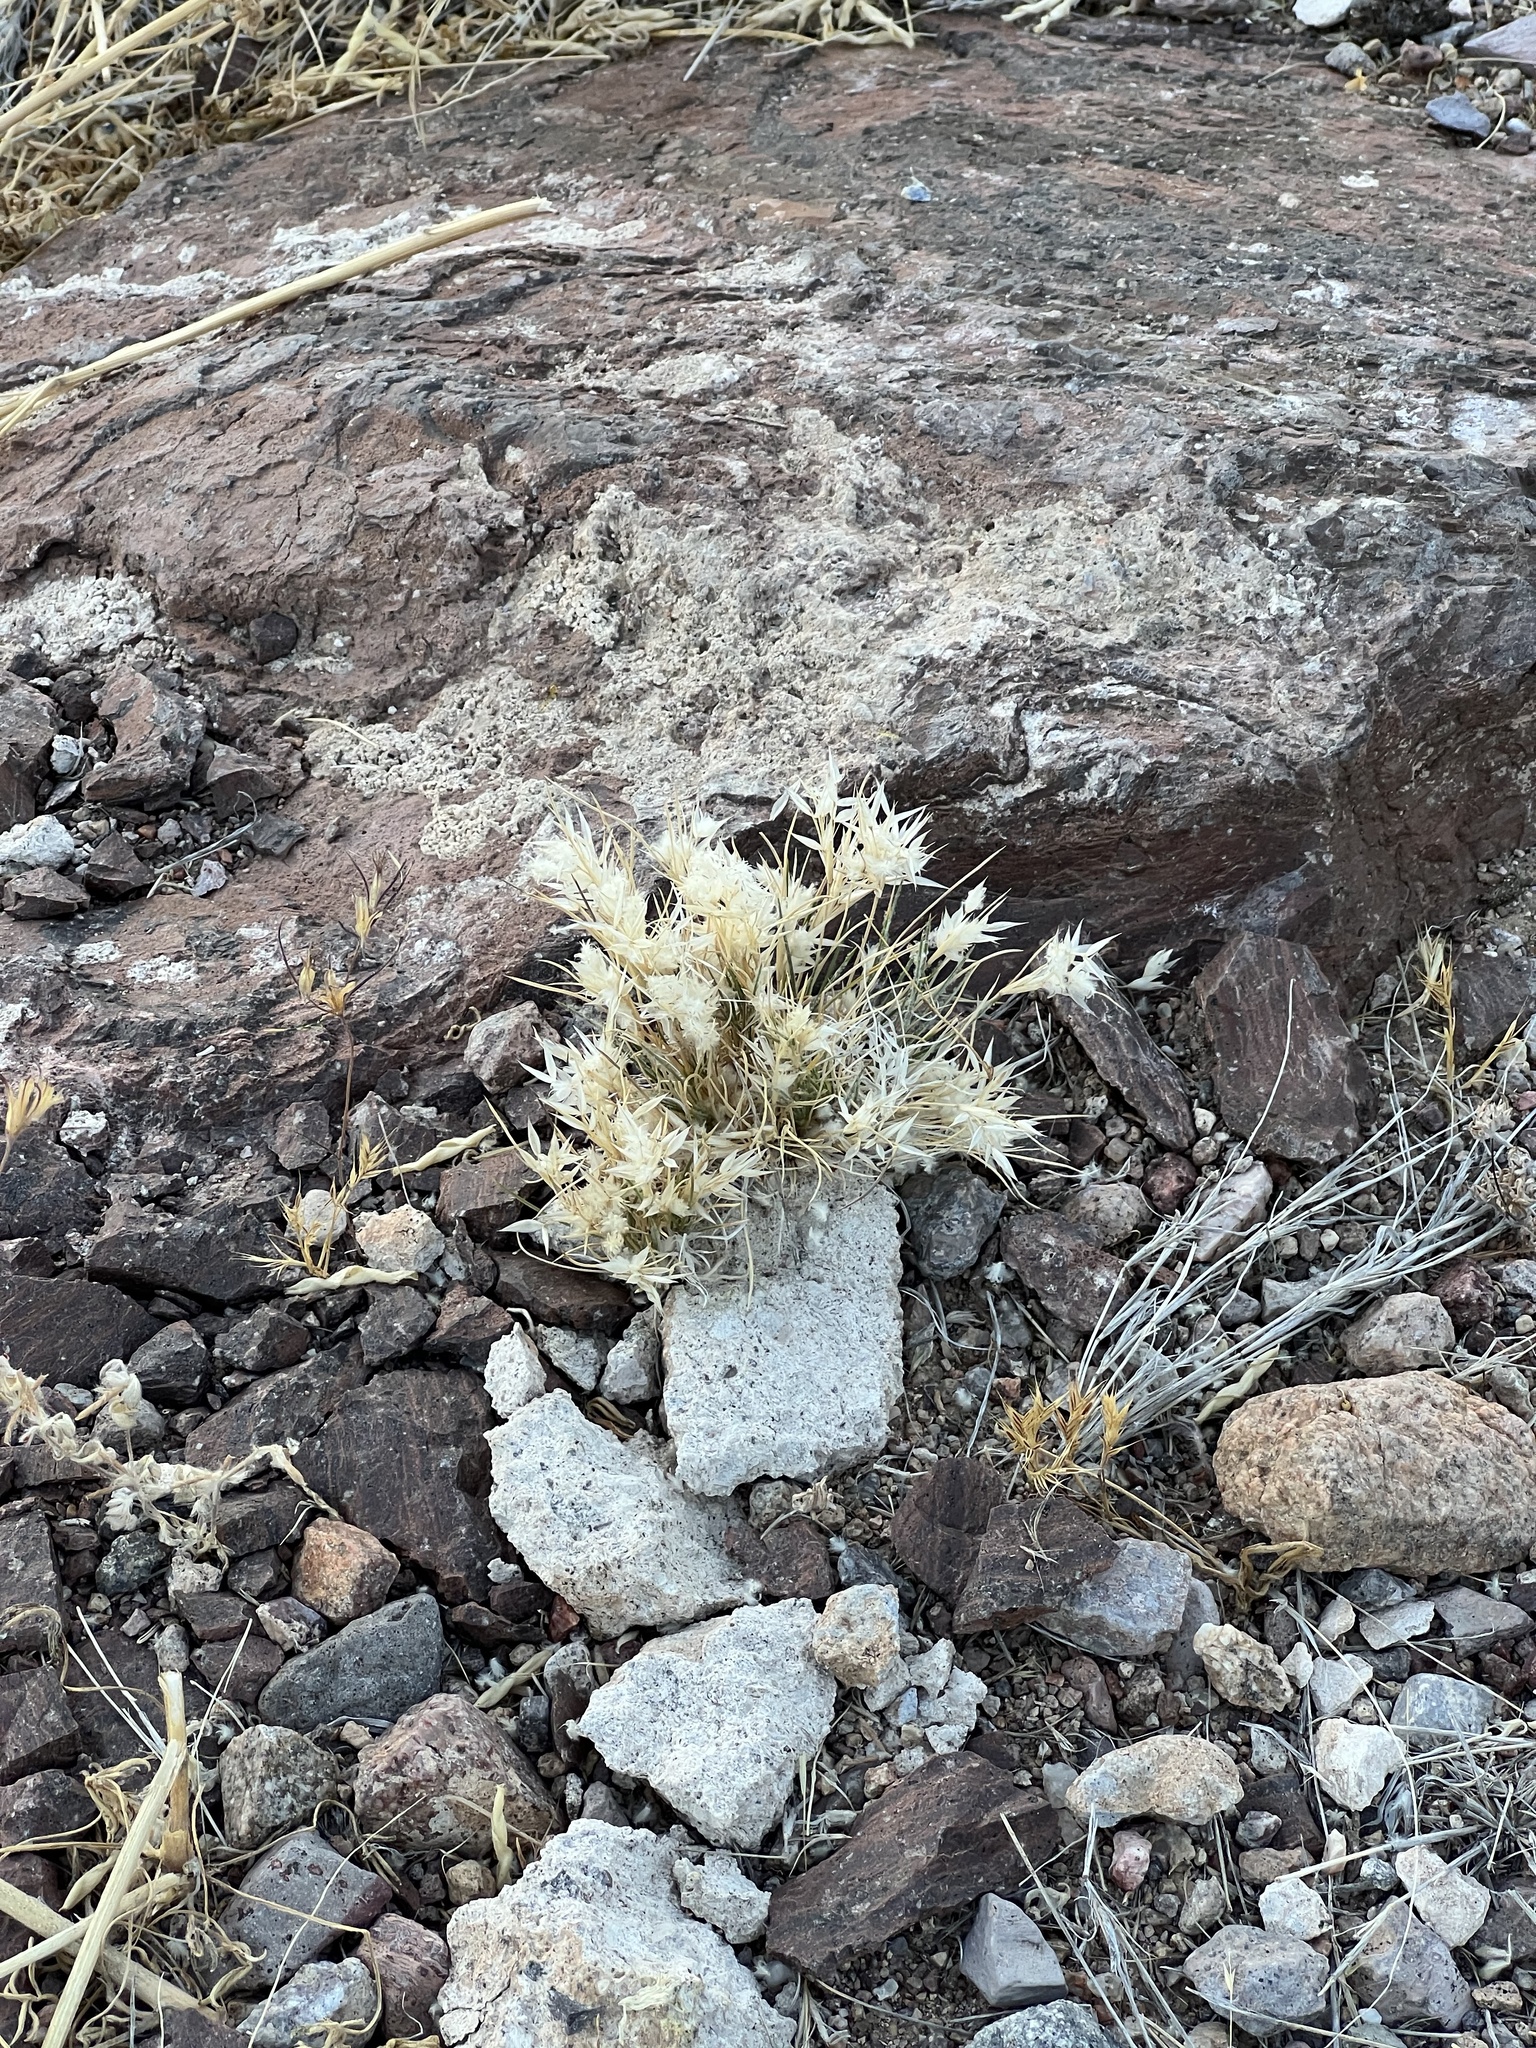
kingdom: Plantae
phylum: Tracheophyta
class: Liliopsida
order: Poales
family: Poaceae
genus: Dasyochloa
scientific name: Dasyochloa pulchella
